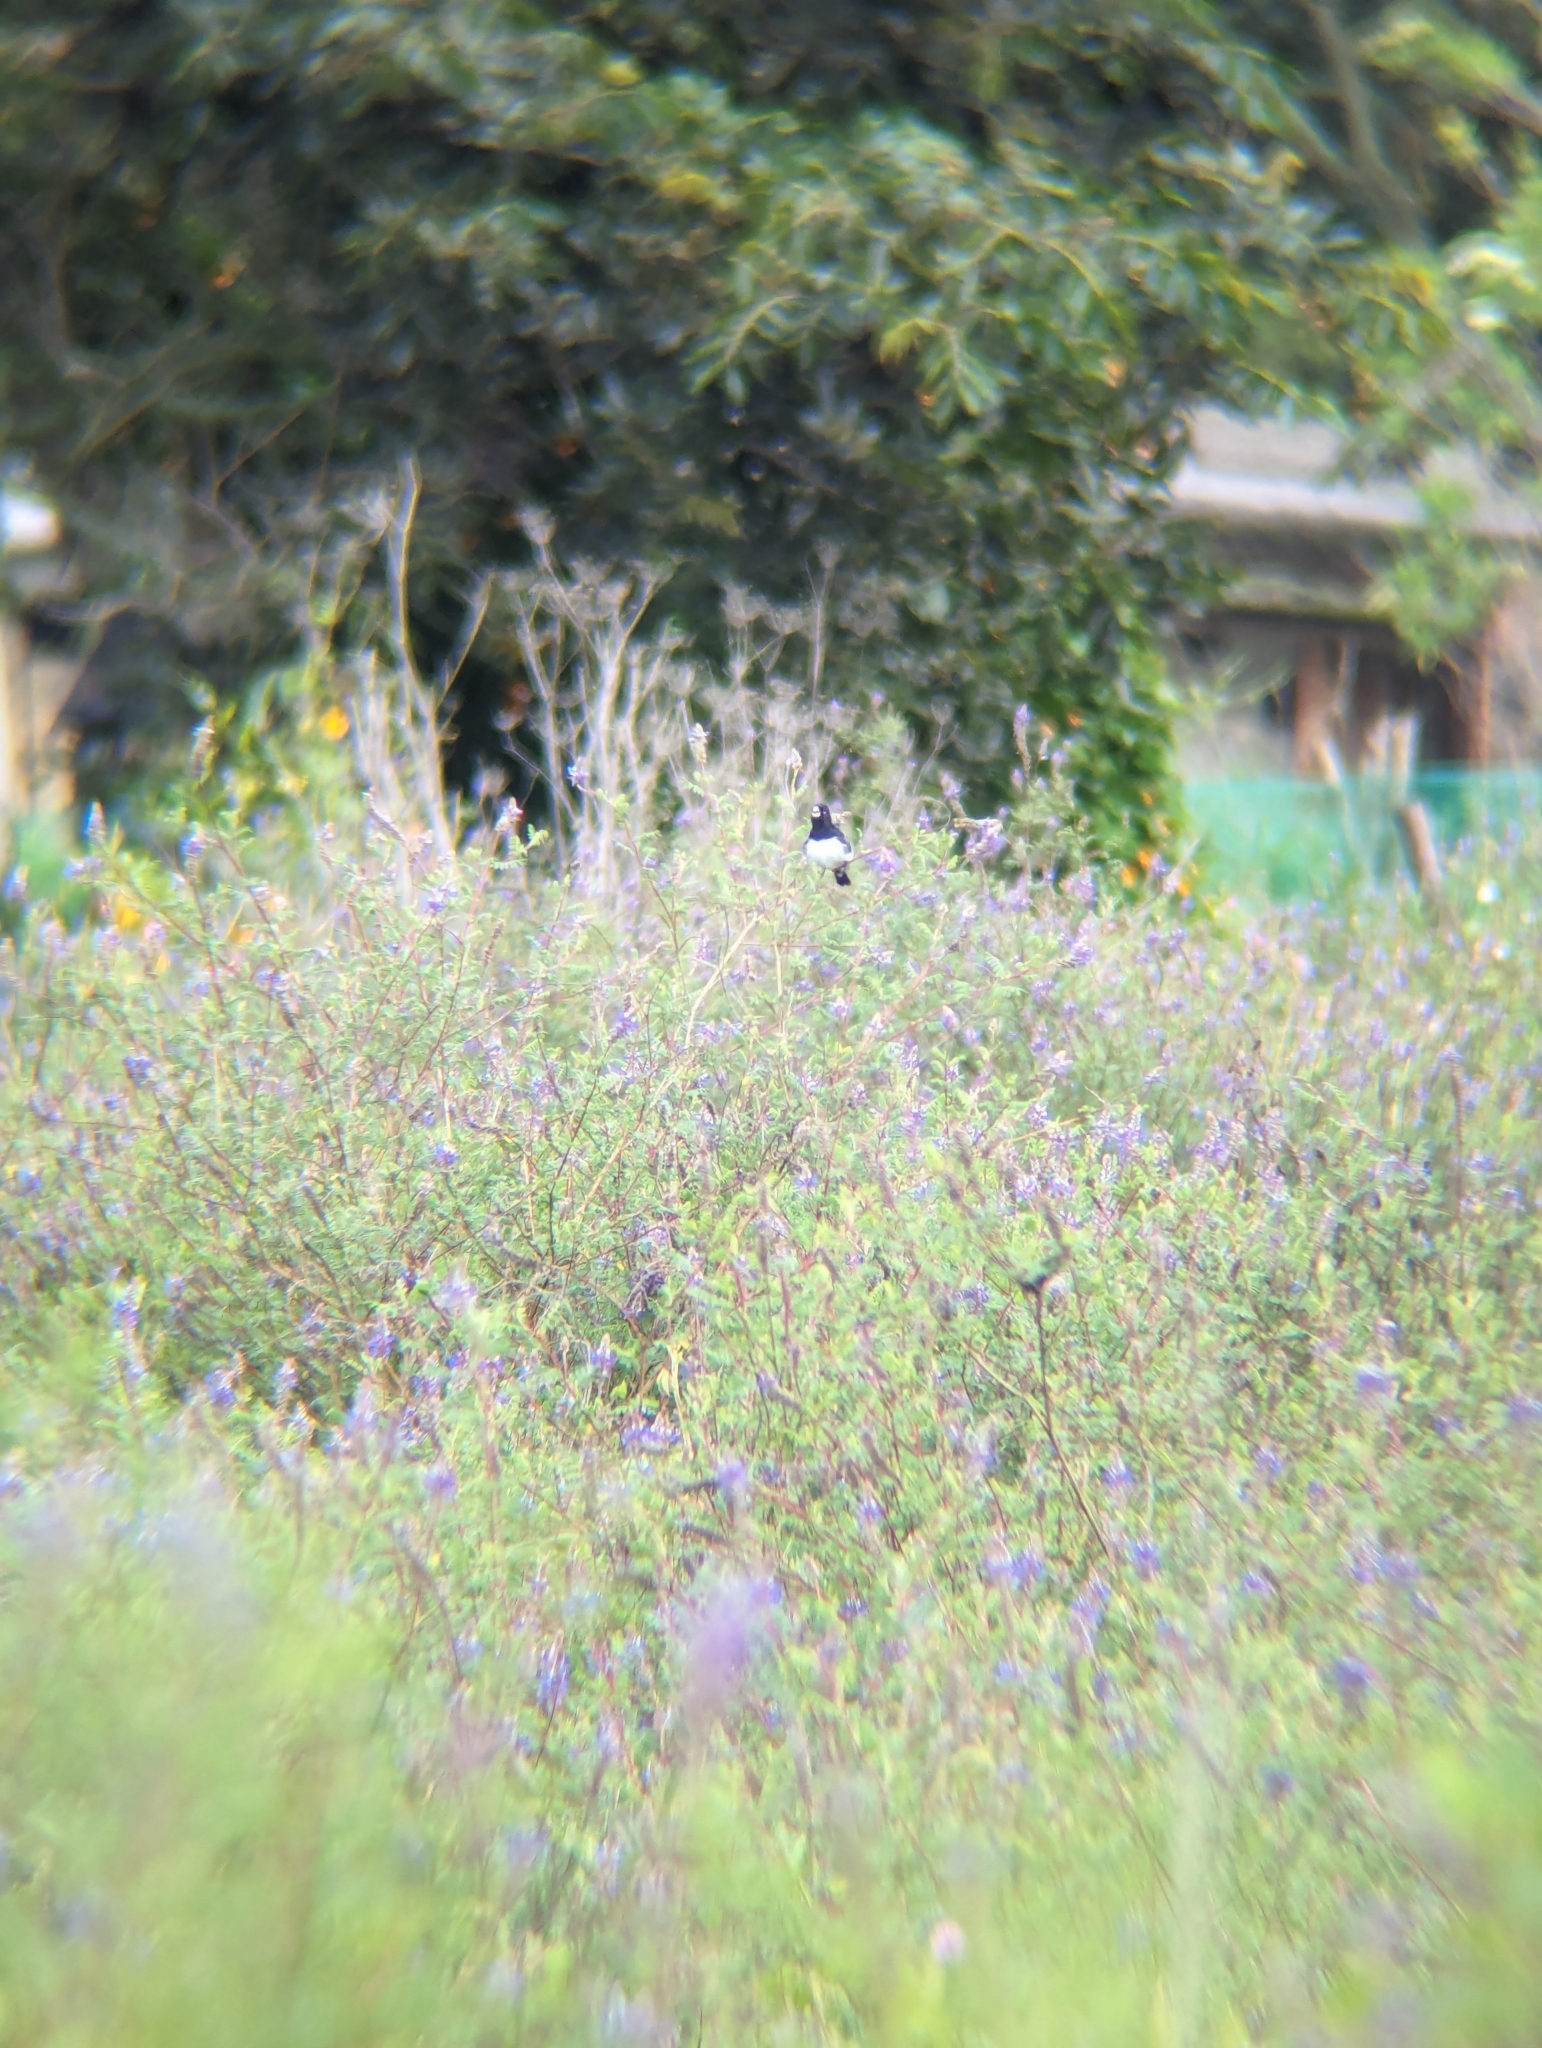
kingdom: Animalia
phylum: Chordata
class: Aves
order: Passeriformes
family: Thraupidae
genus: Sporophila
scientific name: Sporophila luctuosa
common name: Black-and-white seedeater
